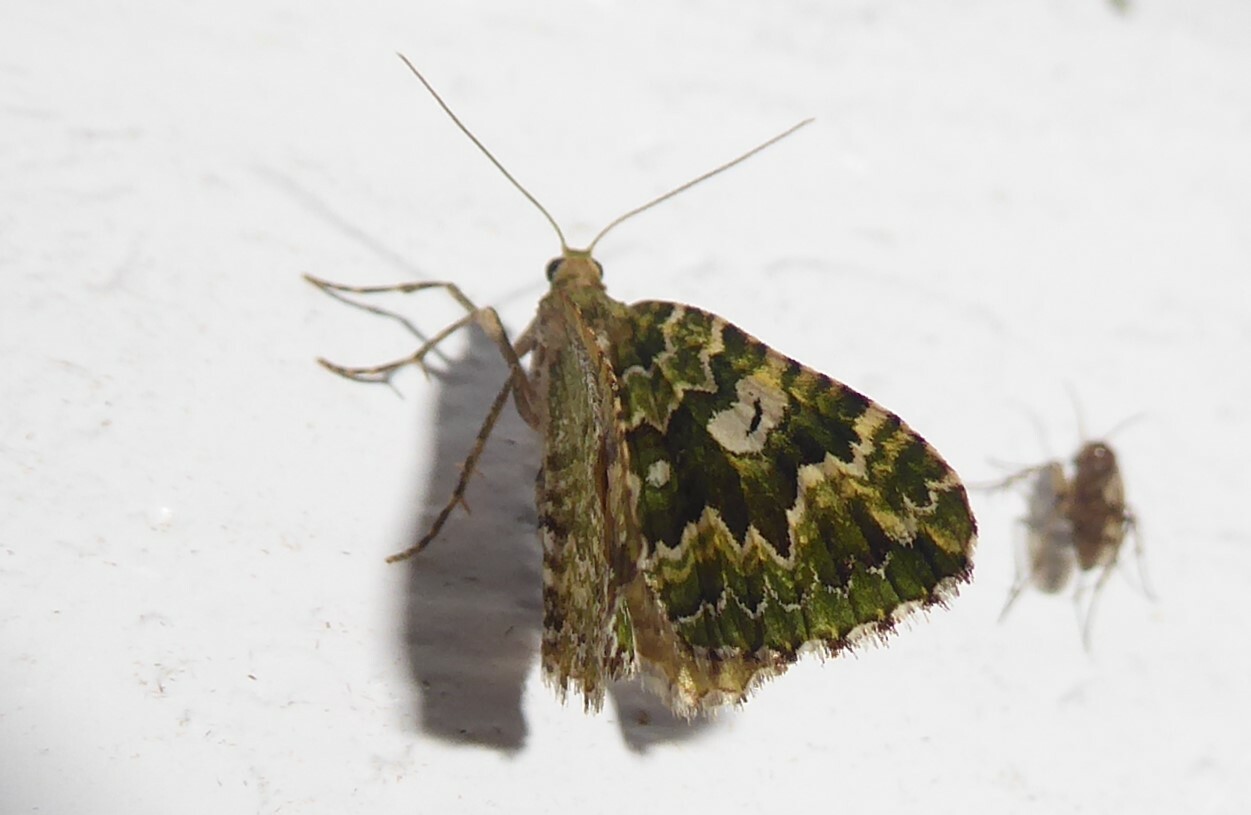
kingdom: Animalia
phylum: Arthropoda
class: Insecta
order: Lepidoptera
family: Geometridae
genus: Asaphodes
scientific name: Asaphodes beata
